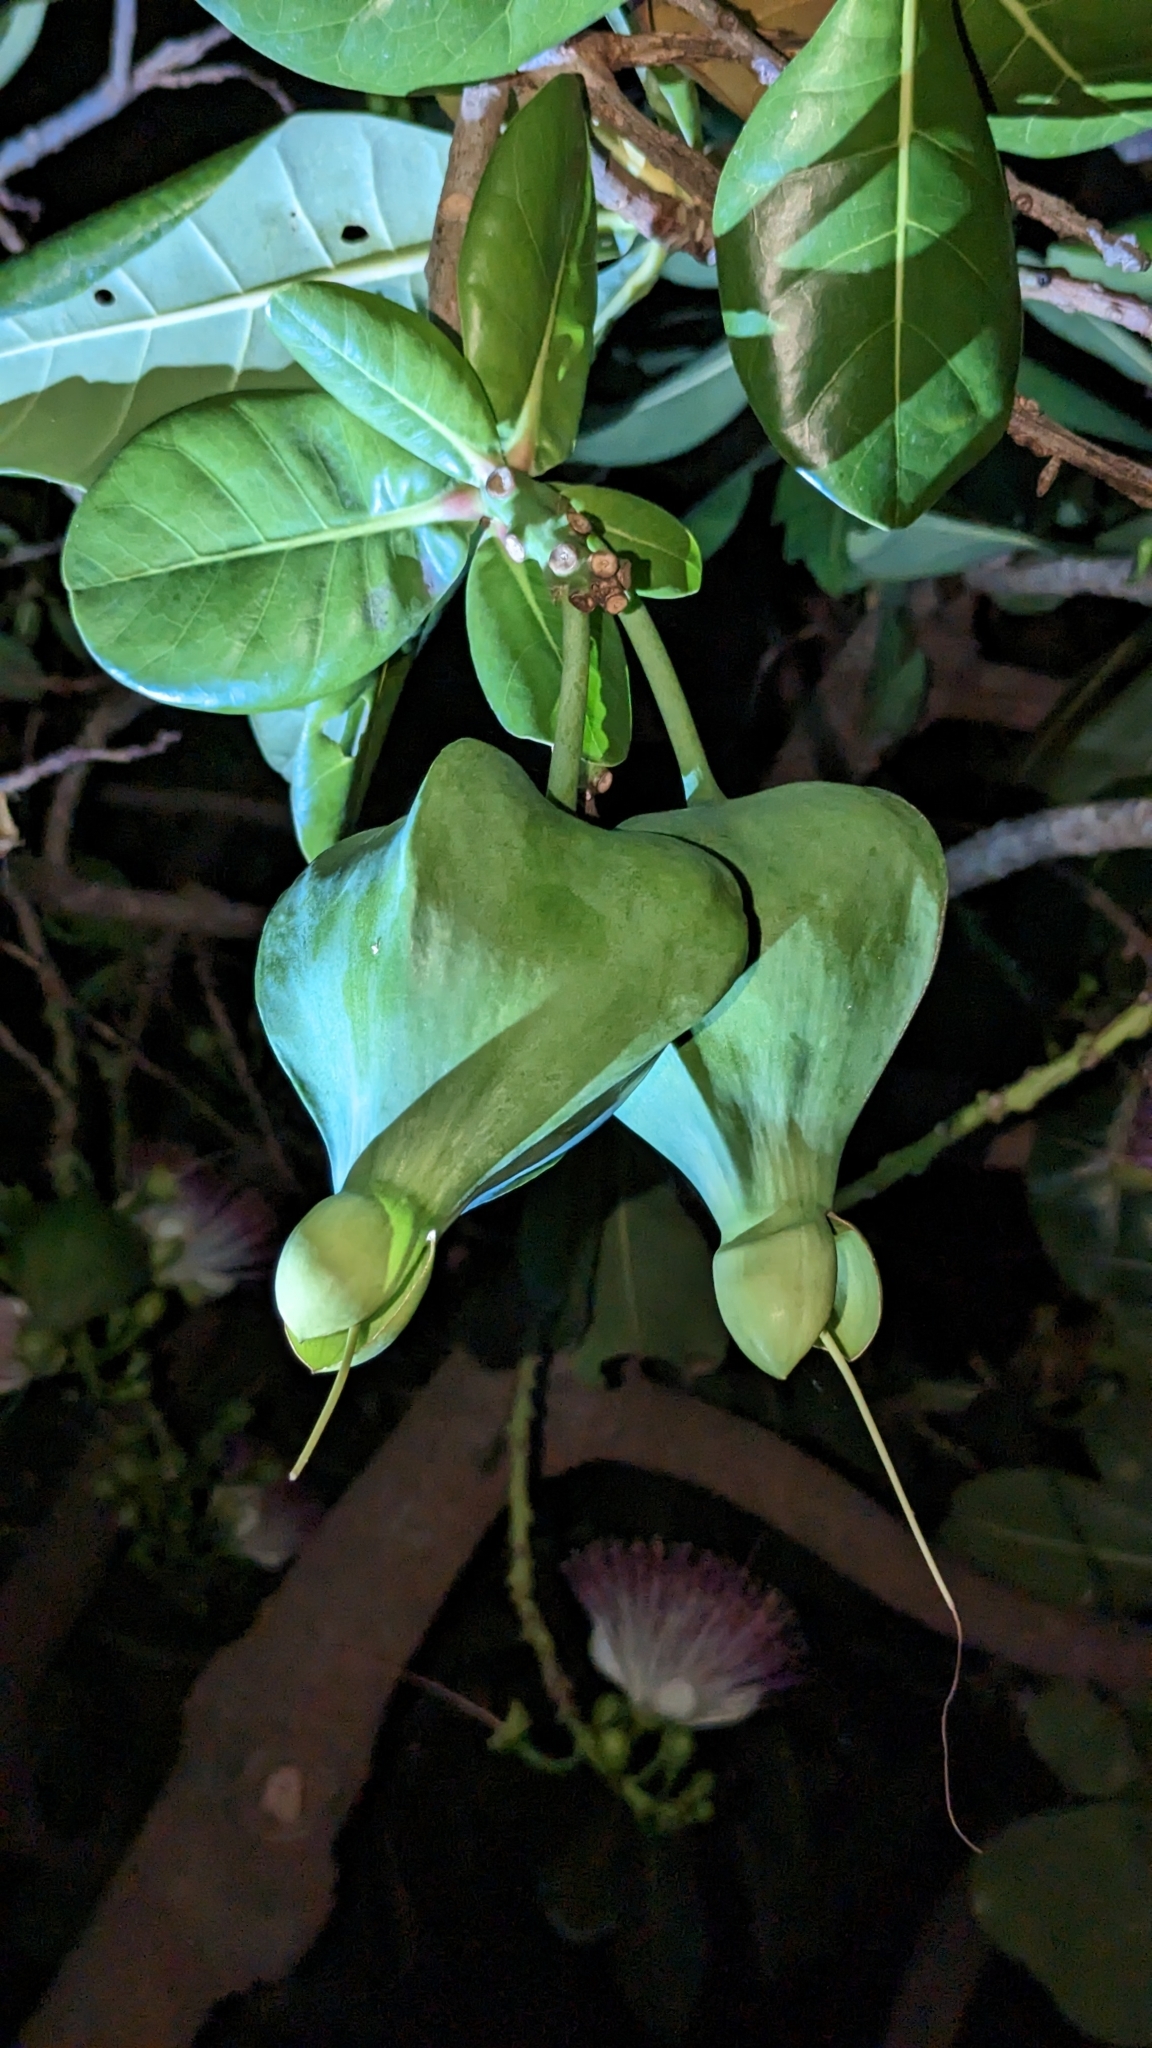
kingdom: Plantae
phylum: Tracheophyta
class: Magnoliopsida
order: Ericales
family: Lecythidaceae
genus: Barringtonia
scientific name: Barringtonia asiatica
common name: Mango-pine
